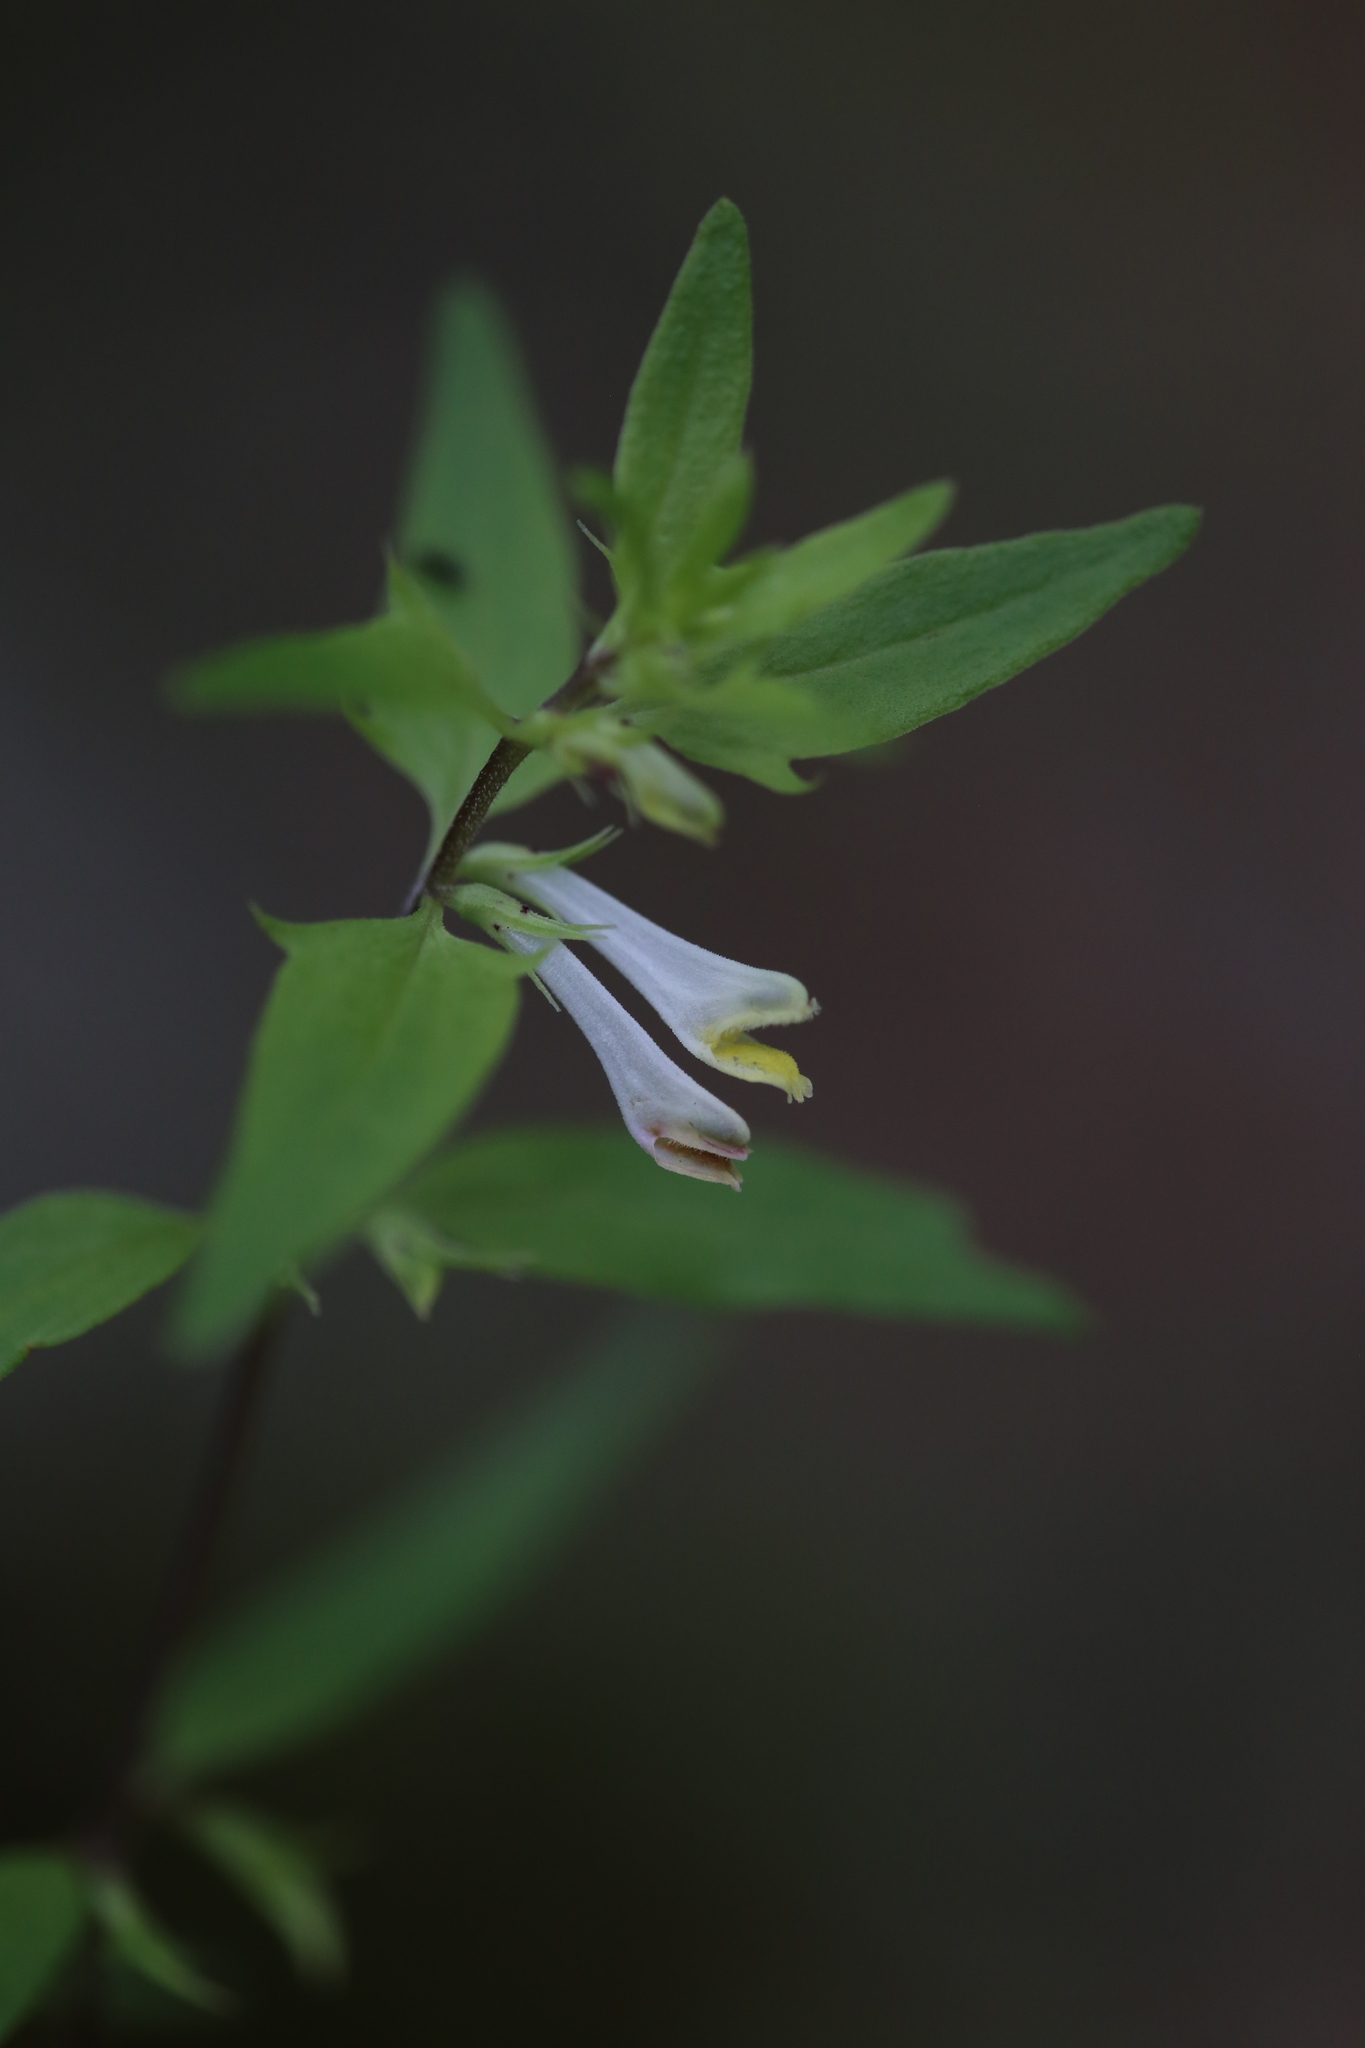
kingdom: Plantae
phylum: Tracheophyta
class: Magnoliopsida
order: Lamiales
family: Orobanchaceae
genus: Melampyrum
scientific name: Melampyrum lineare
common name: American cow-wheat
